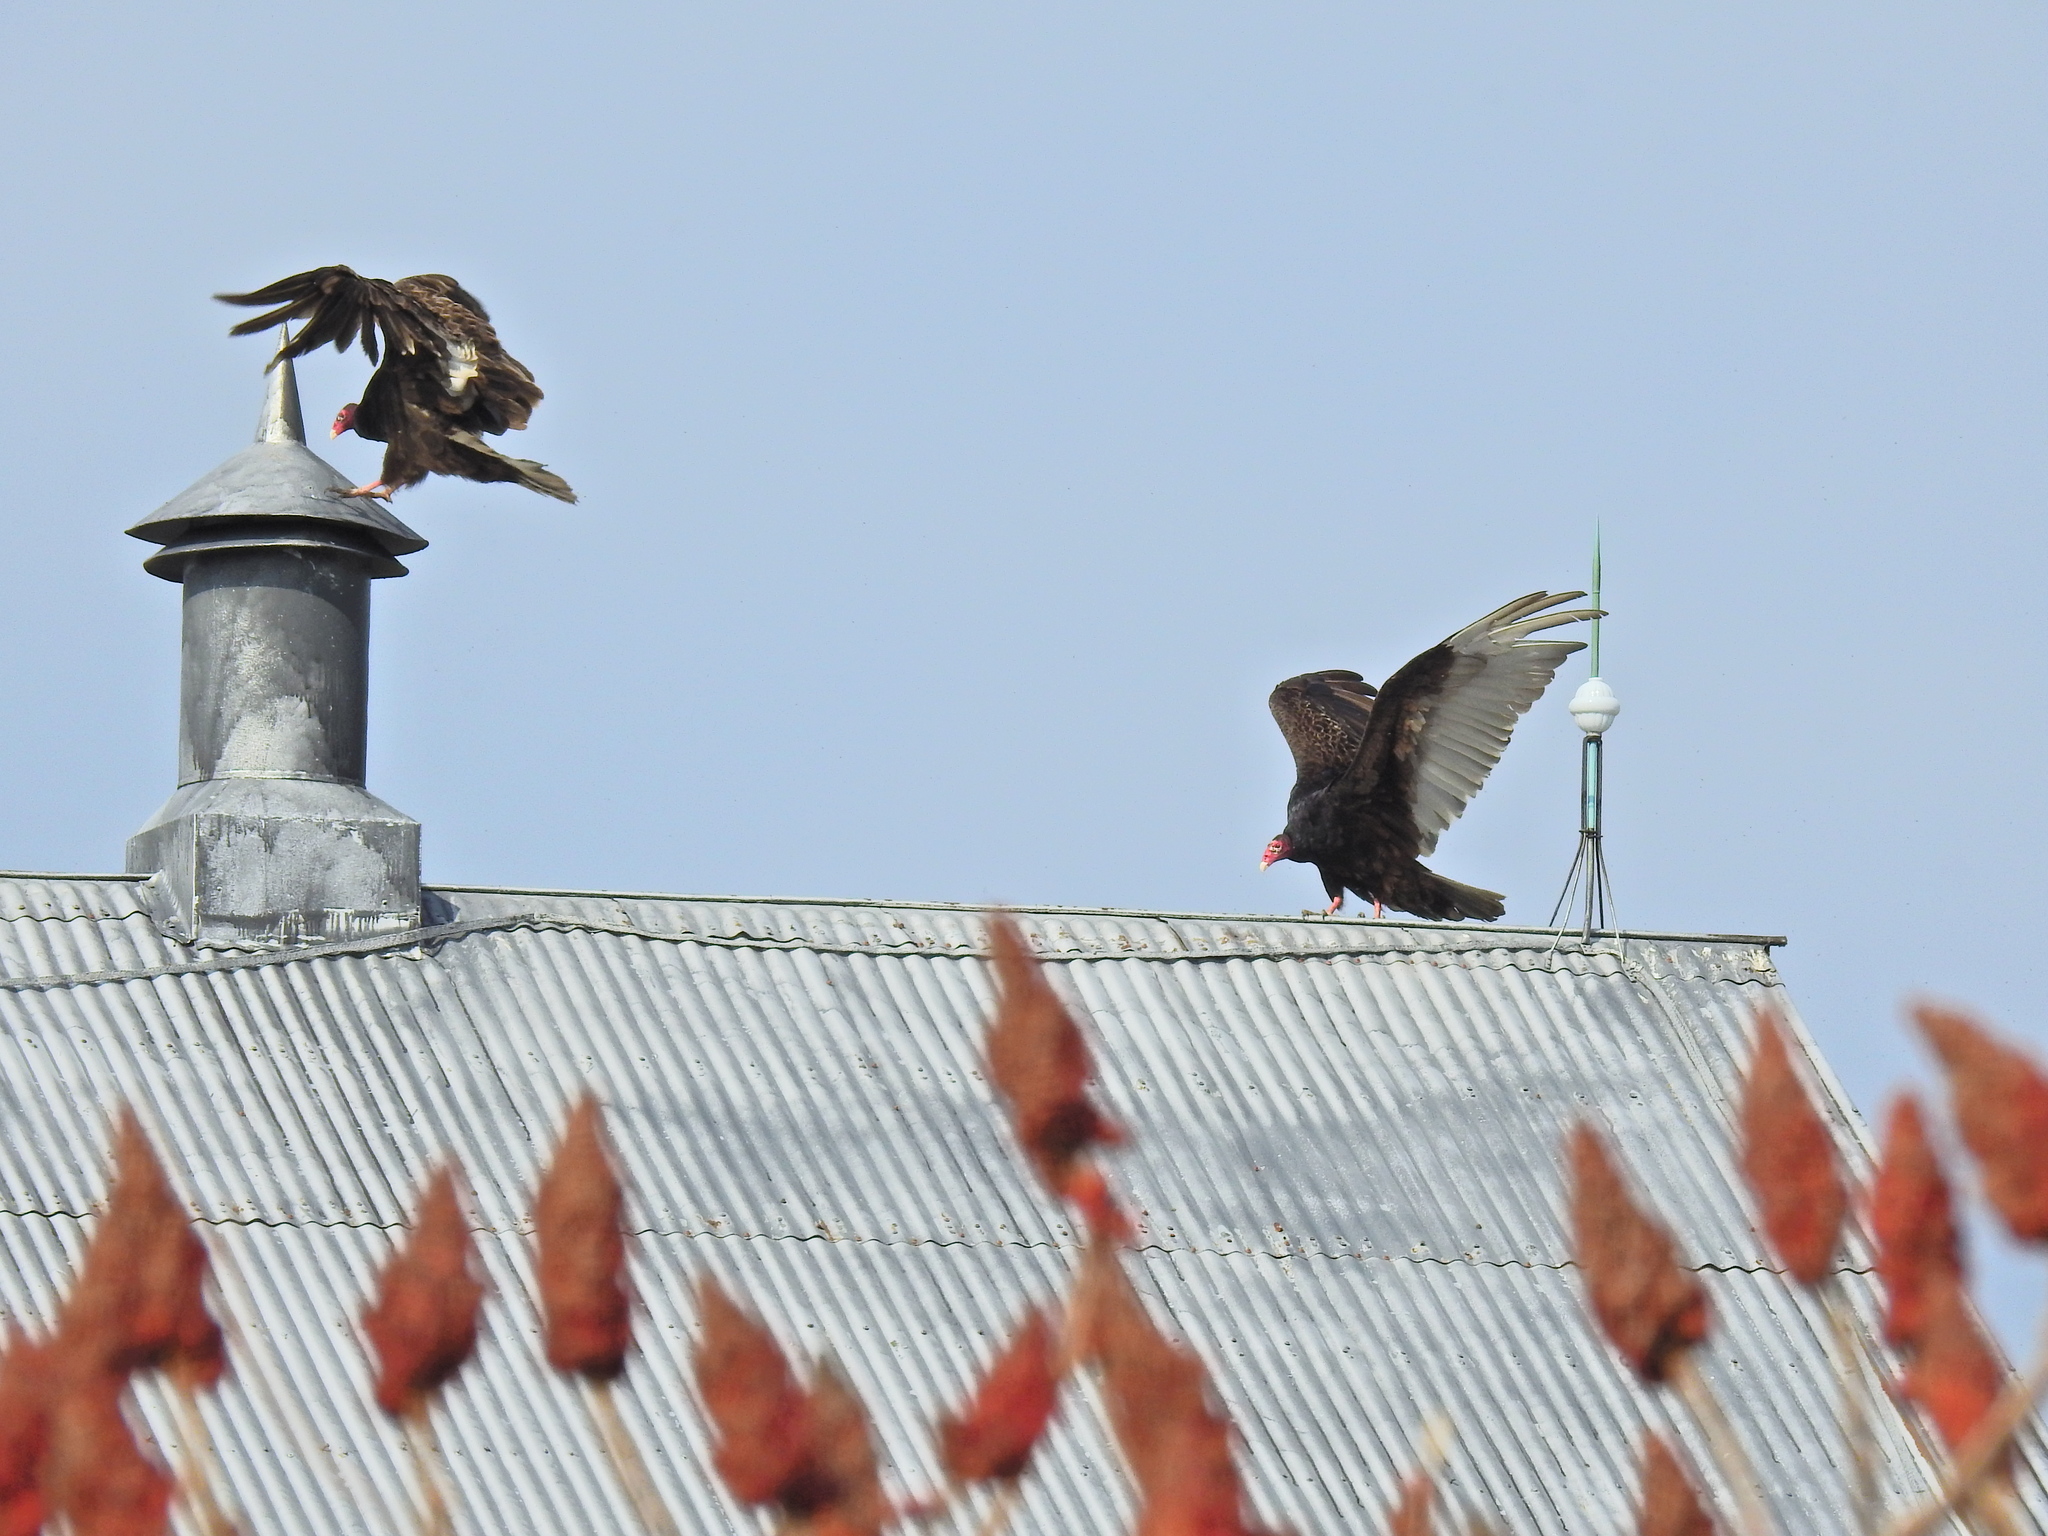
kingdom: Animalia
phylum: Chordata
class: Aves
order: Accipitriformes
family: Cathartidae
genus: Cathartes
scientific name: Cathartes aura
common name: Turkey vulture
